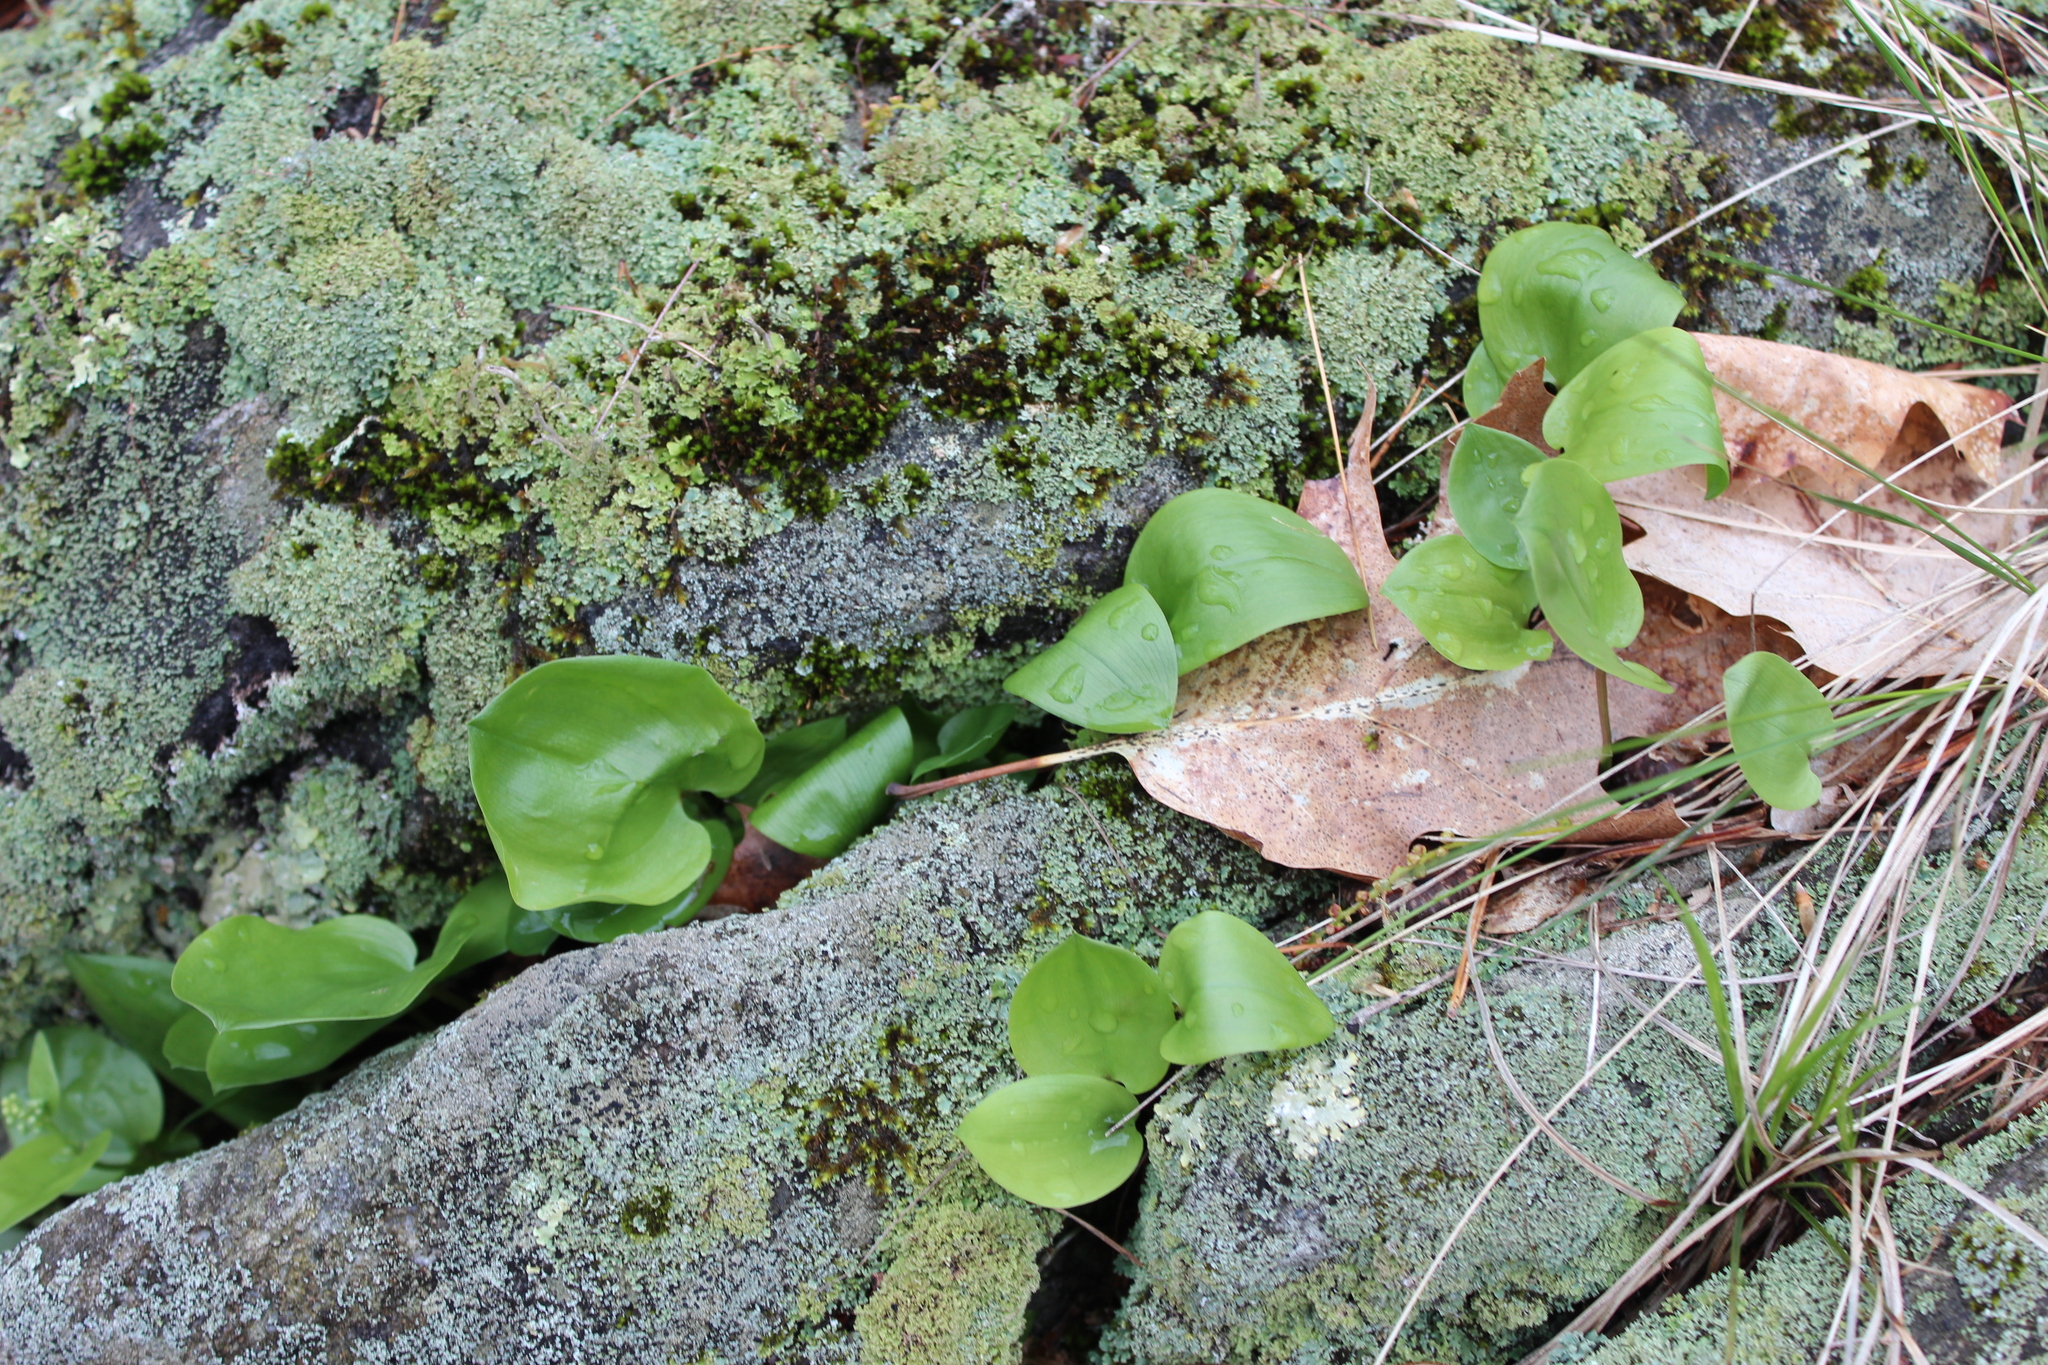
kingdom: Plantae
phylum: Tracheophyta
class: Liliopsida
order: Asparagales
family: Asparagaceae
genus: Maianthemum
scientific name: Maianthemum canadense
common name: False lily-of-the-valley
